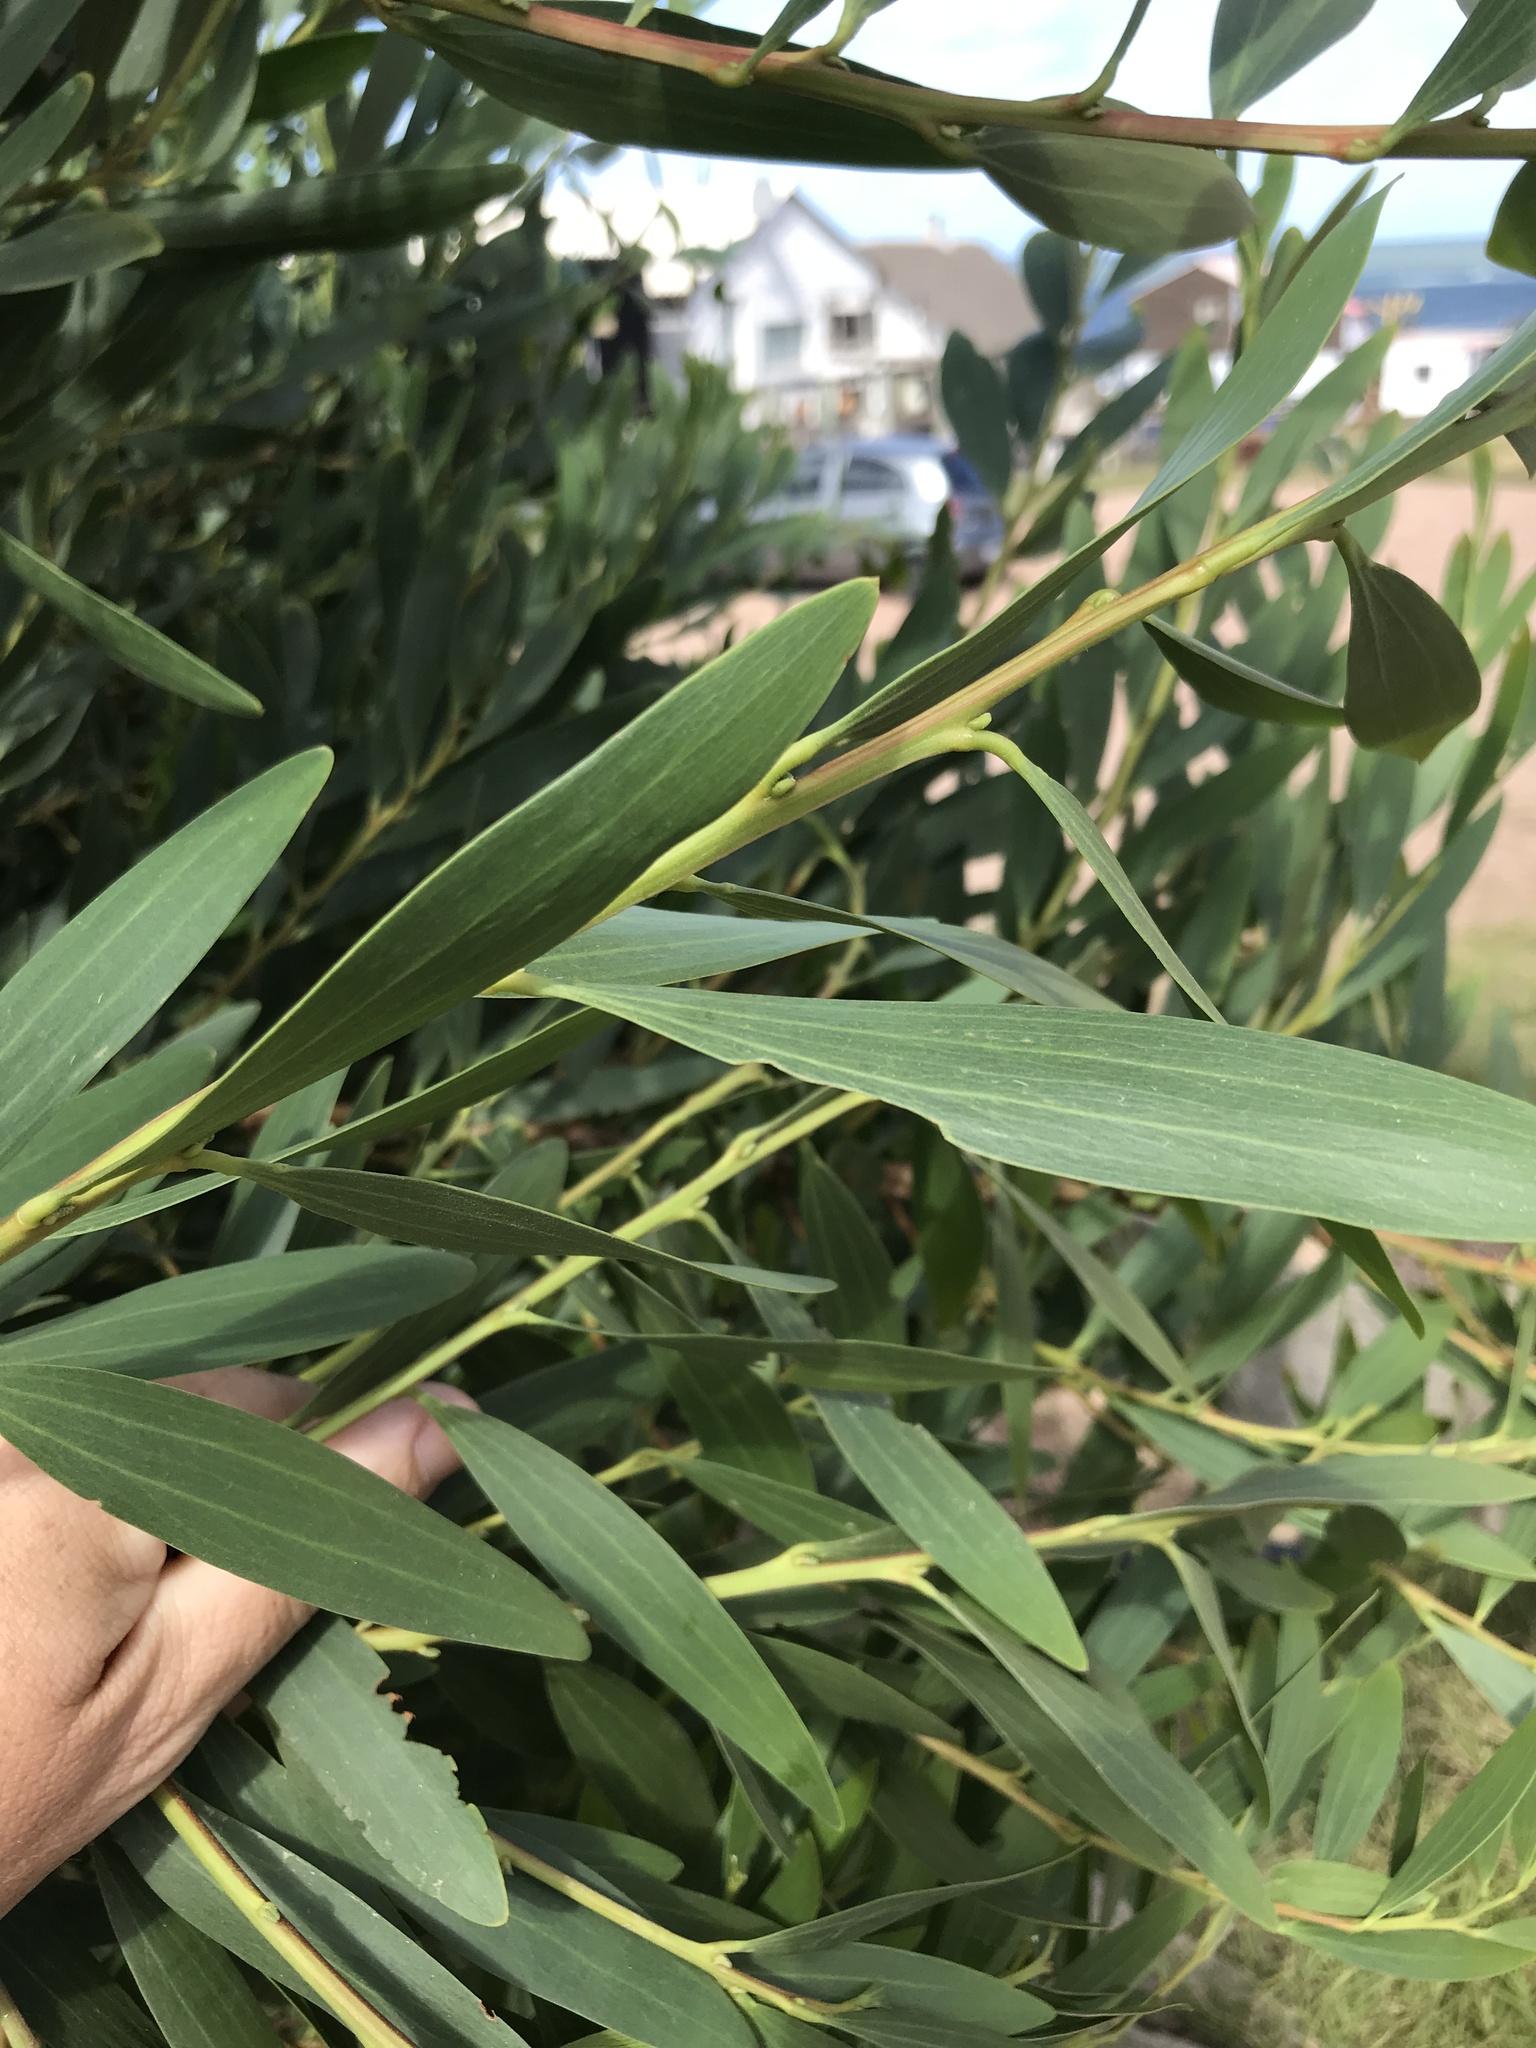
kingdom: Plantae
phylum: Tracheophyta
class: Magnoliopsida
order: Fabales
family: Fabaceae
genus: Acacia
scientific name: Acacia longifolia
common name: Sydney golden wattle
